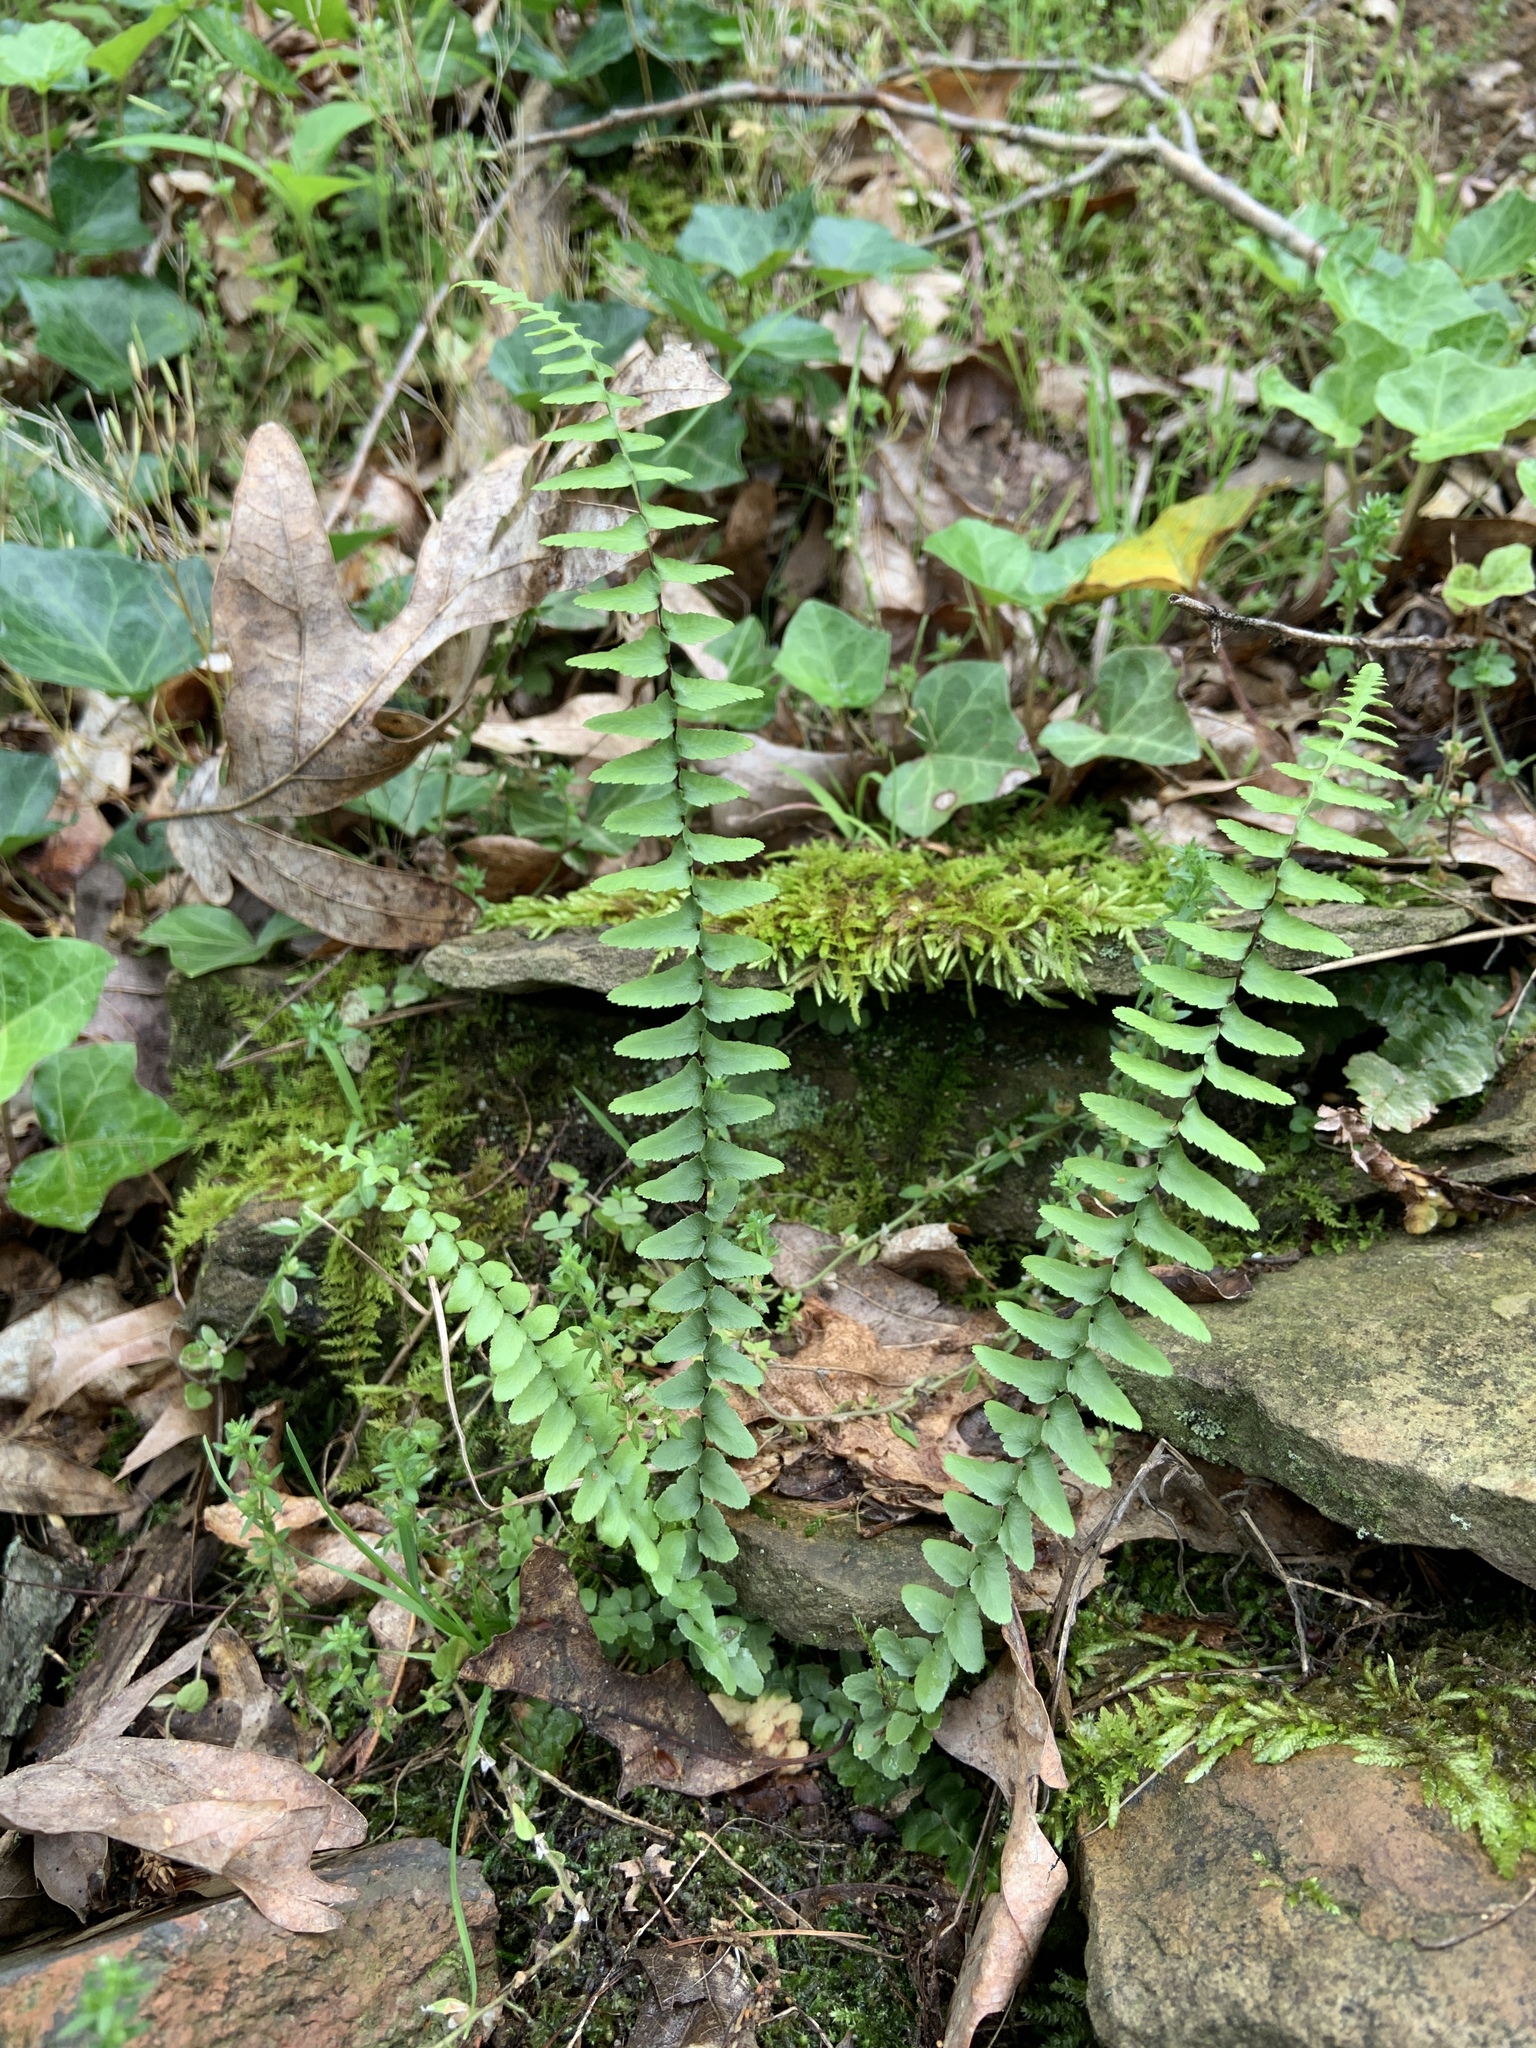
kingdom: Plantae
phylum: Tracheophyta
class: Polypodiopsida
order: Polypodiales
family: Aspleniaceae
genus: Asplenium
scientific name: Asplenium platyneuron
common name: Ebony spleenwort
